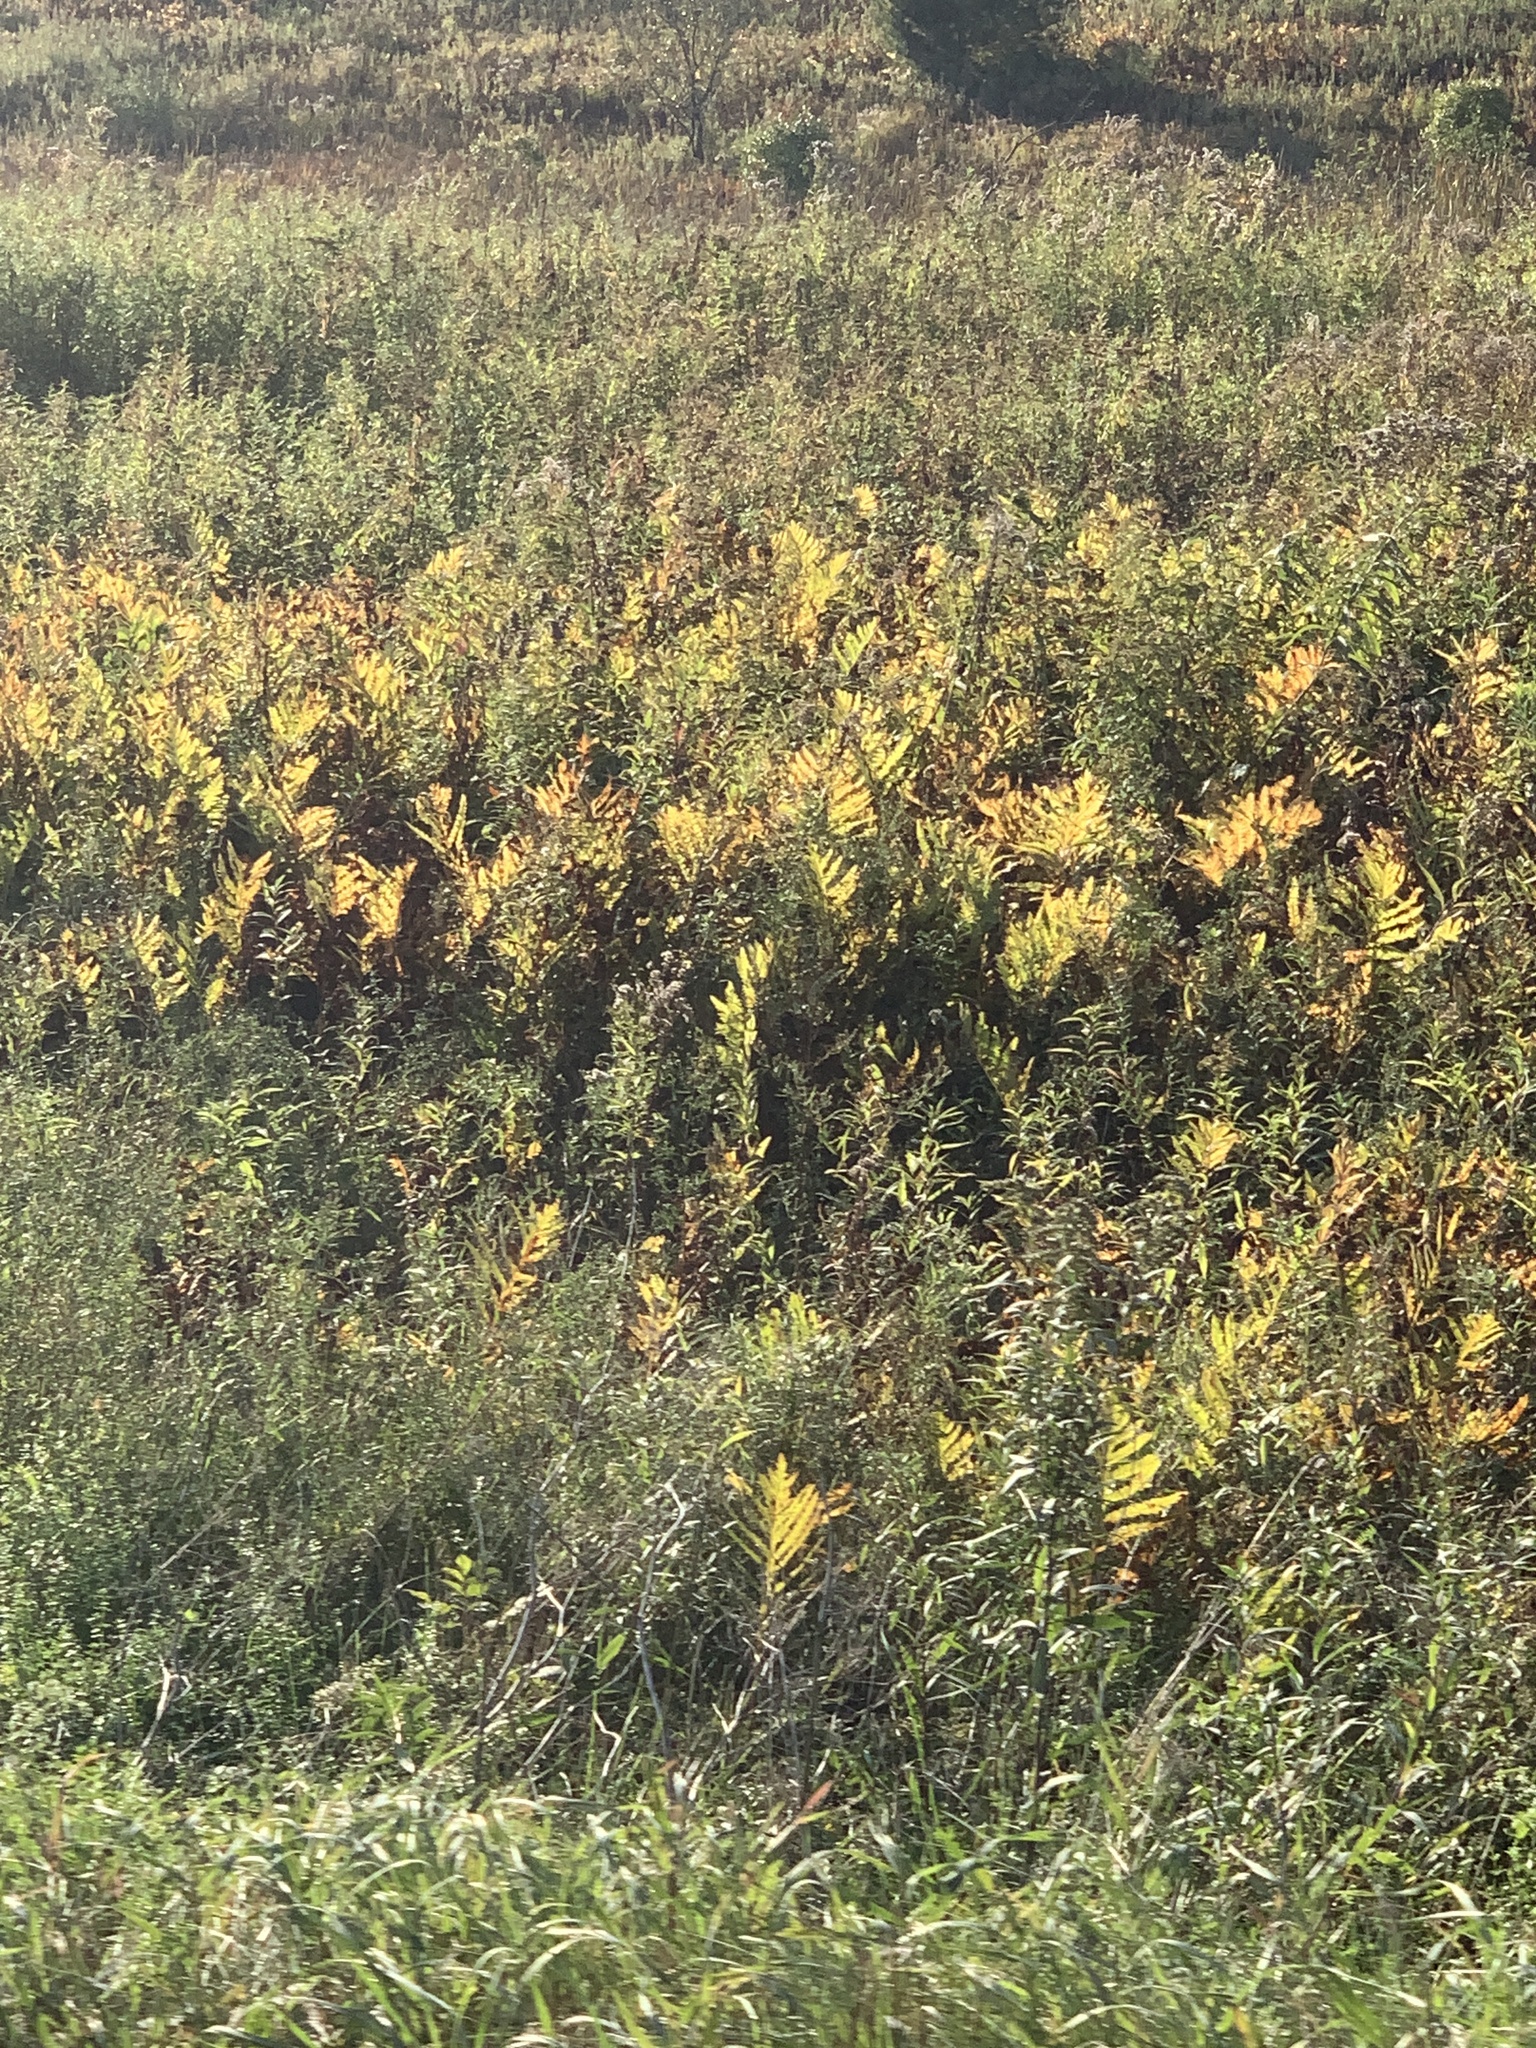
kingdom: Plantae
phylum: Tracheophyta
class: Polypodiopsida
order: Polypodiales
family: Onocleaceae
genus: Onoclea
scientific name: Onoclea sensibilis
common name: Sensitive fern
